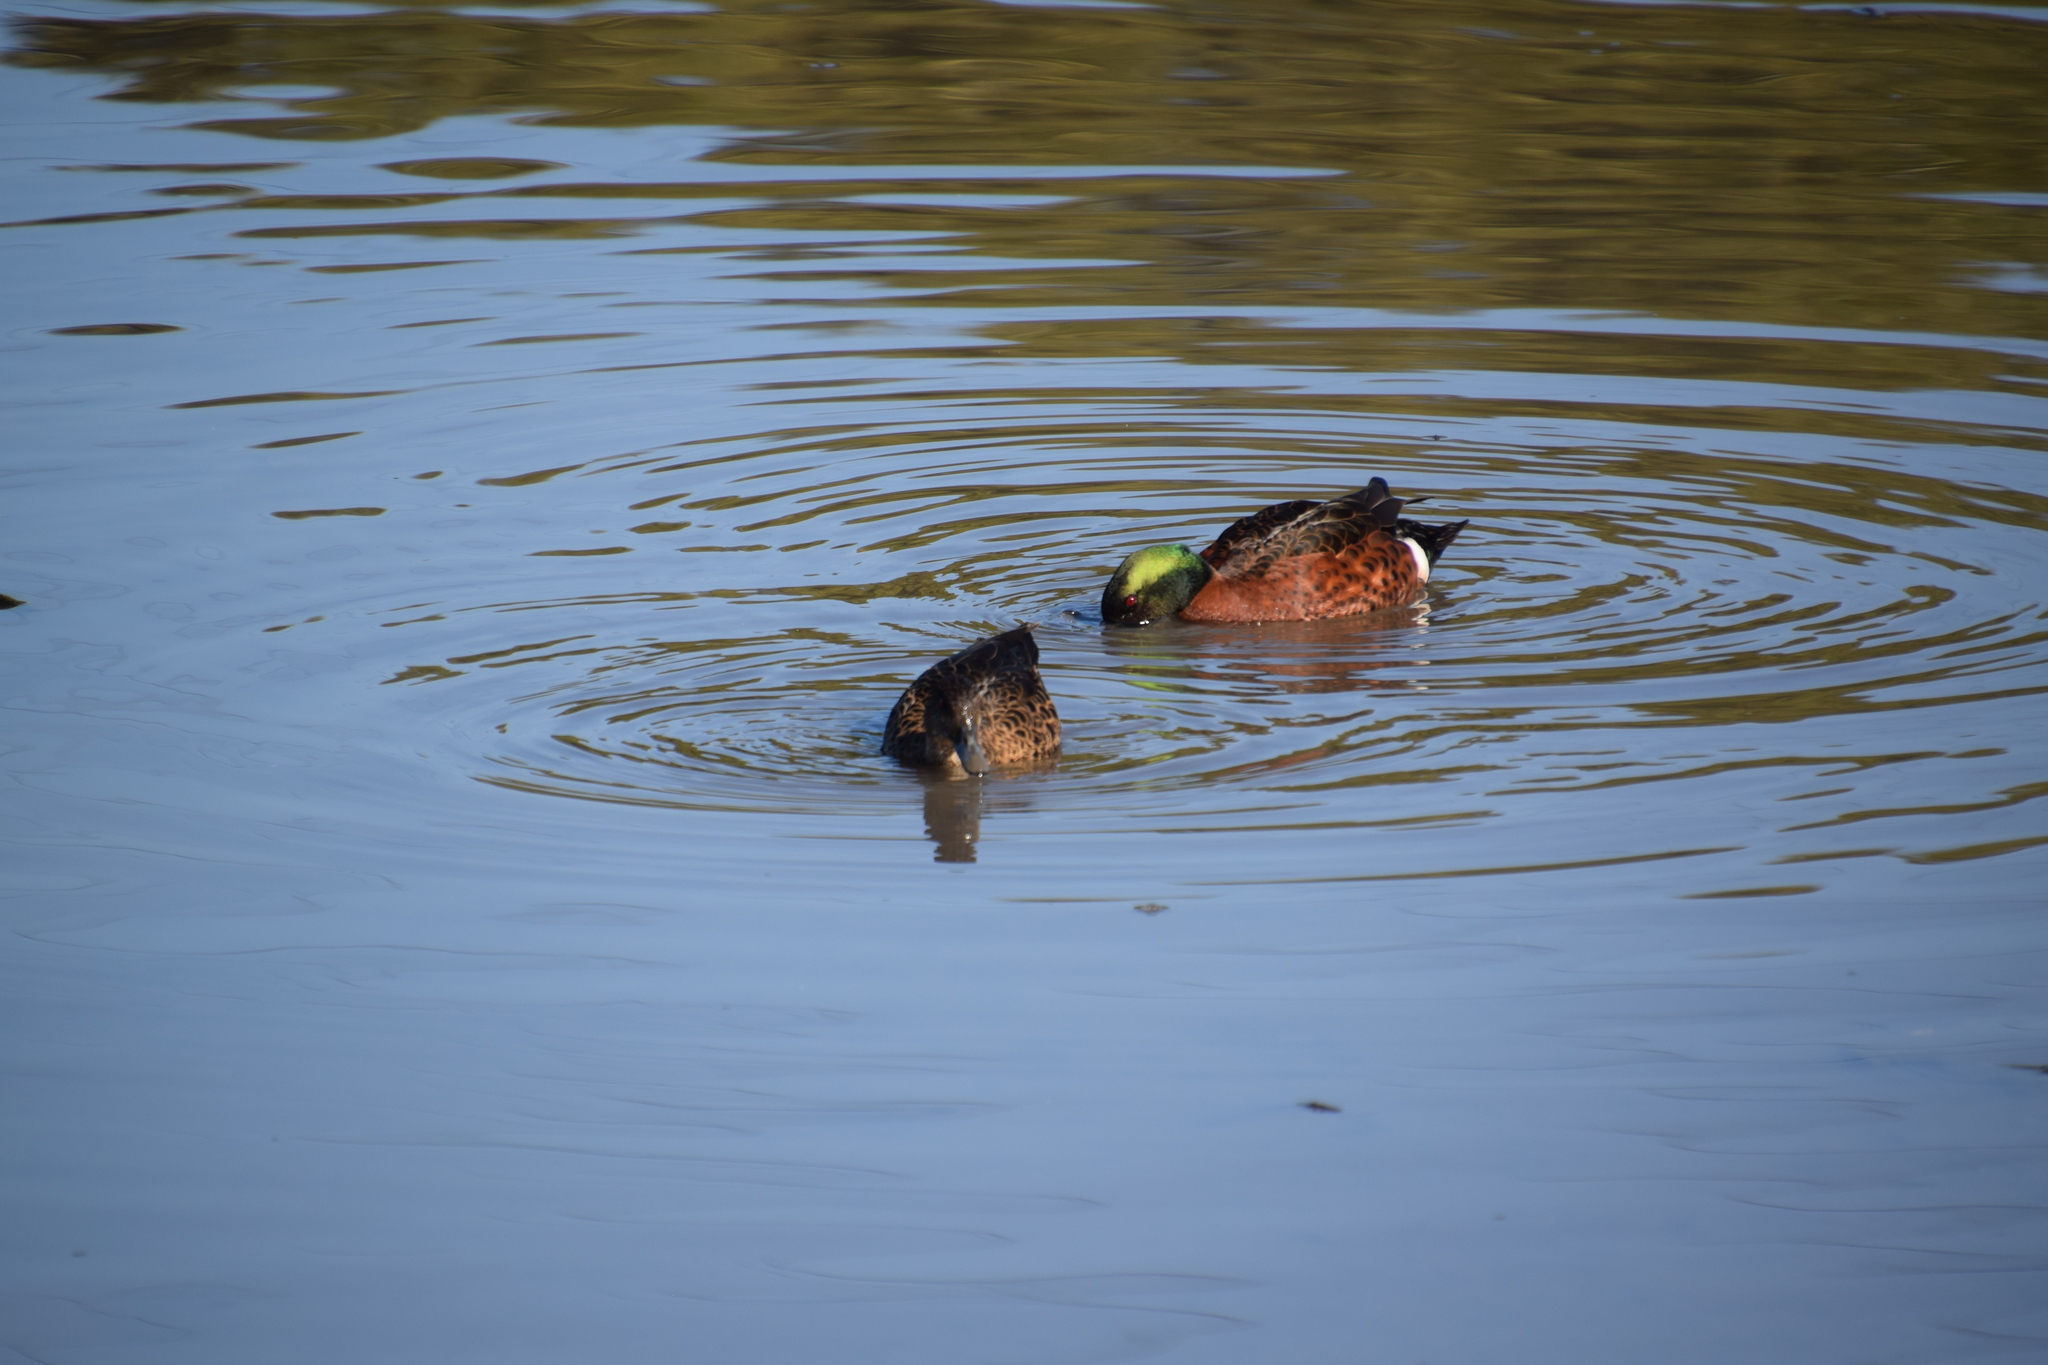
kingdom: Animalia
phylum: Chordata
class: Aves
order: Anseriformes
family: Anatidae
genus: Anas
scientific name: Anas castanea
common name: Chestnut teal
